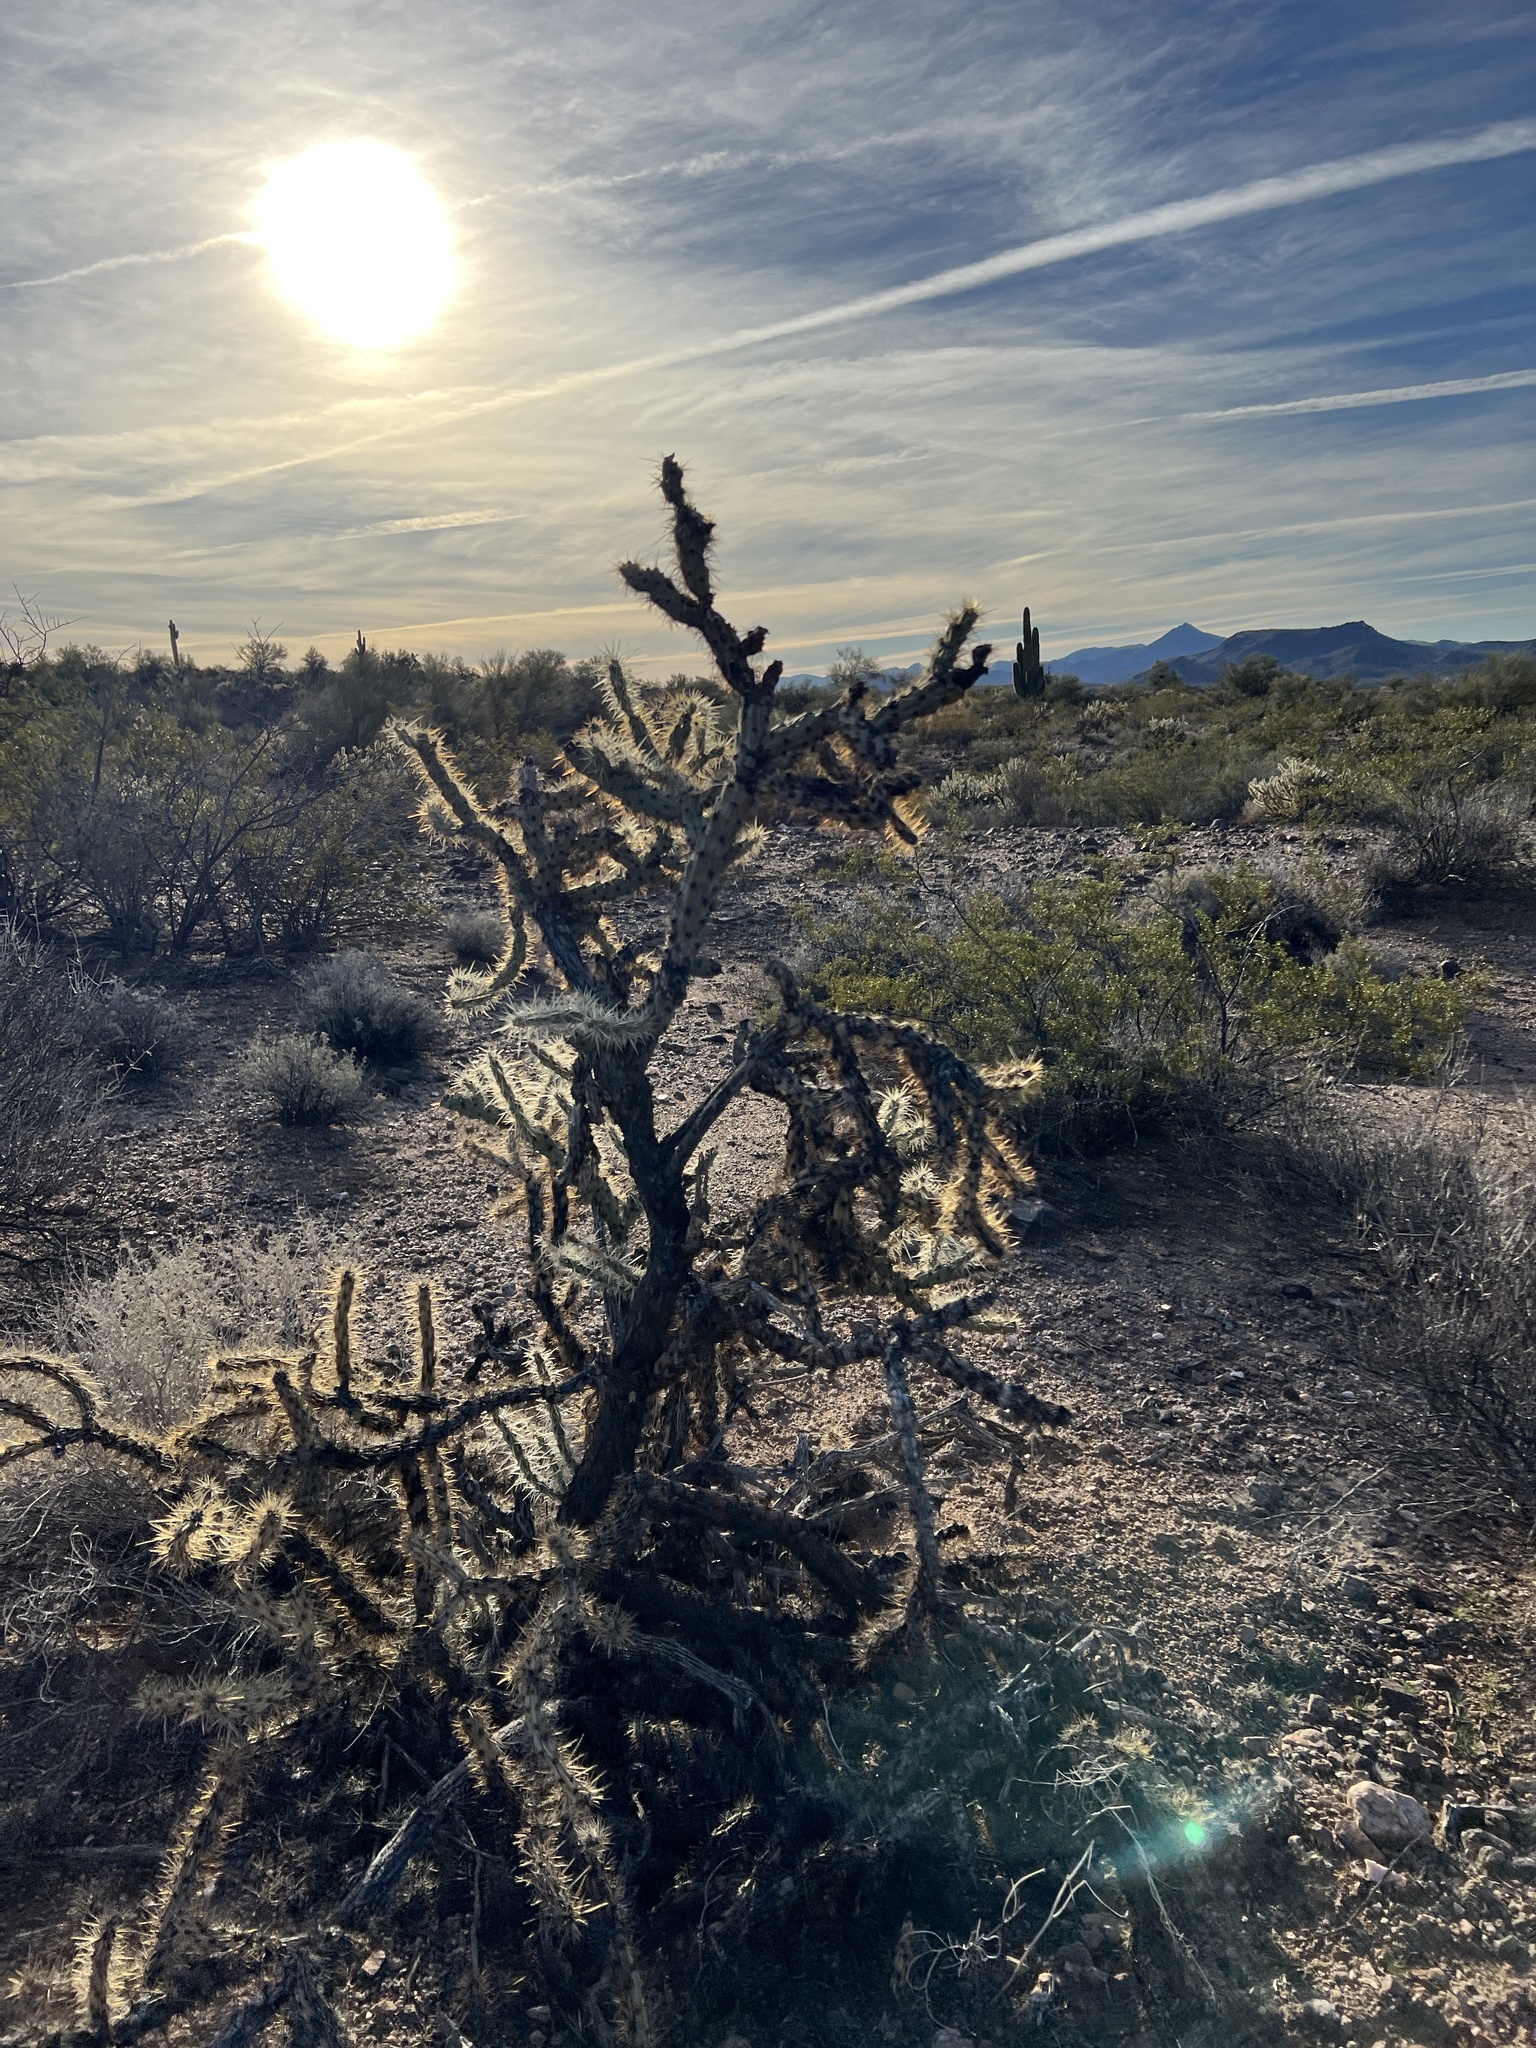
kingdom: Plantae
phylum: Tracheophyta
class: Magnoliopsida
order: Caryophyllales
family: Cactaceae
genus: Cylindropuntia
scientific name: Cylindropuntia acanthocarpa
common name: Buckhorn cholla
